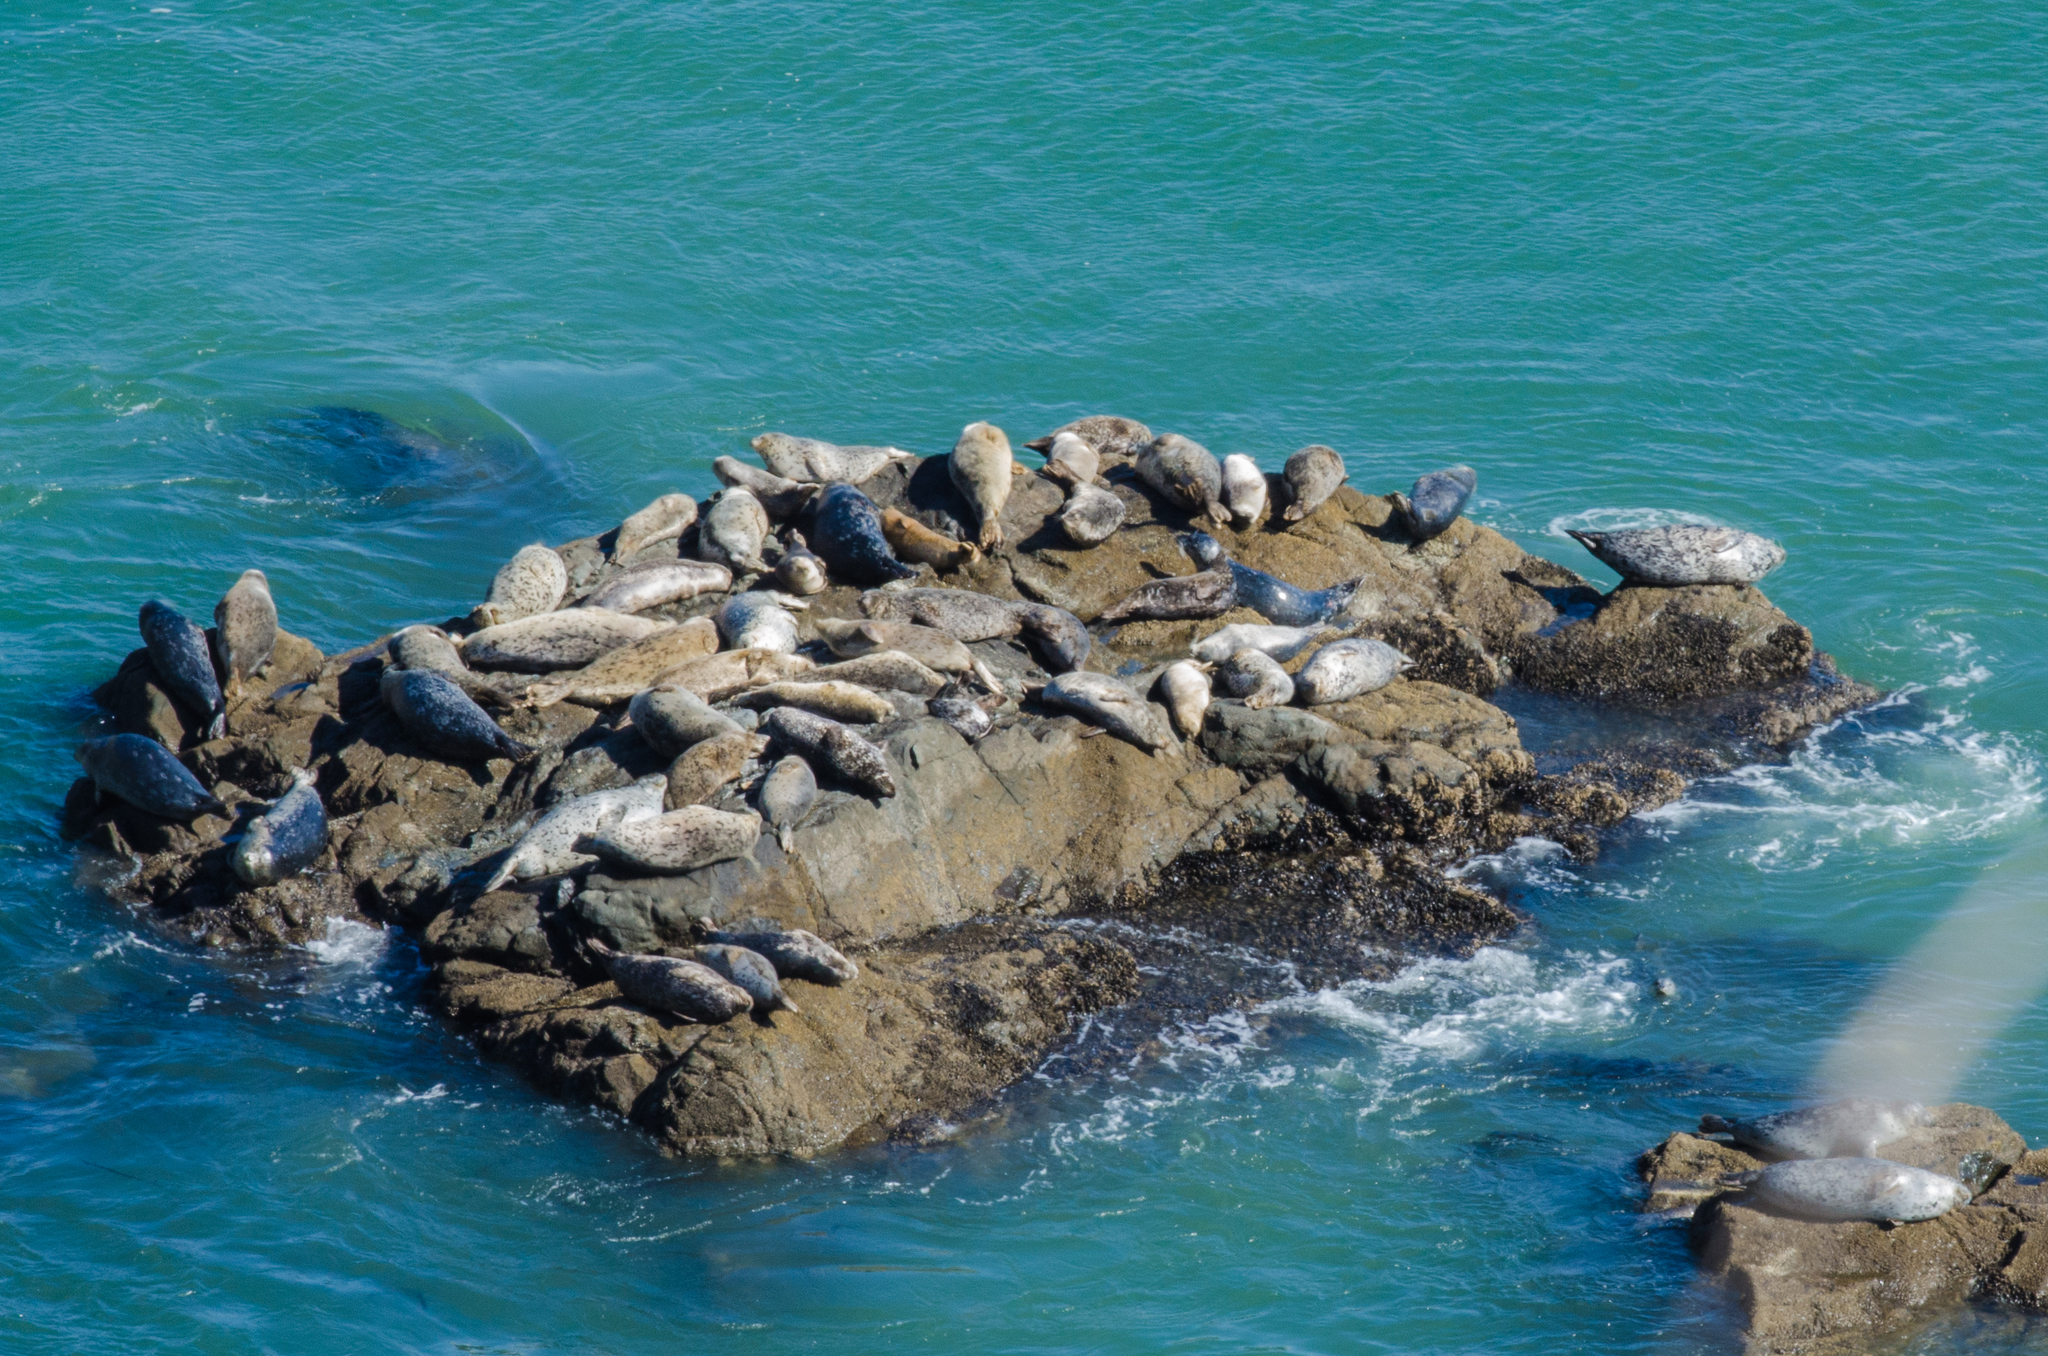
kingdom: Animalia
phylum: Chordata
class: Mammalia
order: Carnivora
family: Phocidae
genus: Phoca
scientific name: Phoca vitulina
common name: Harbor seal
